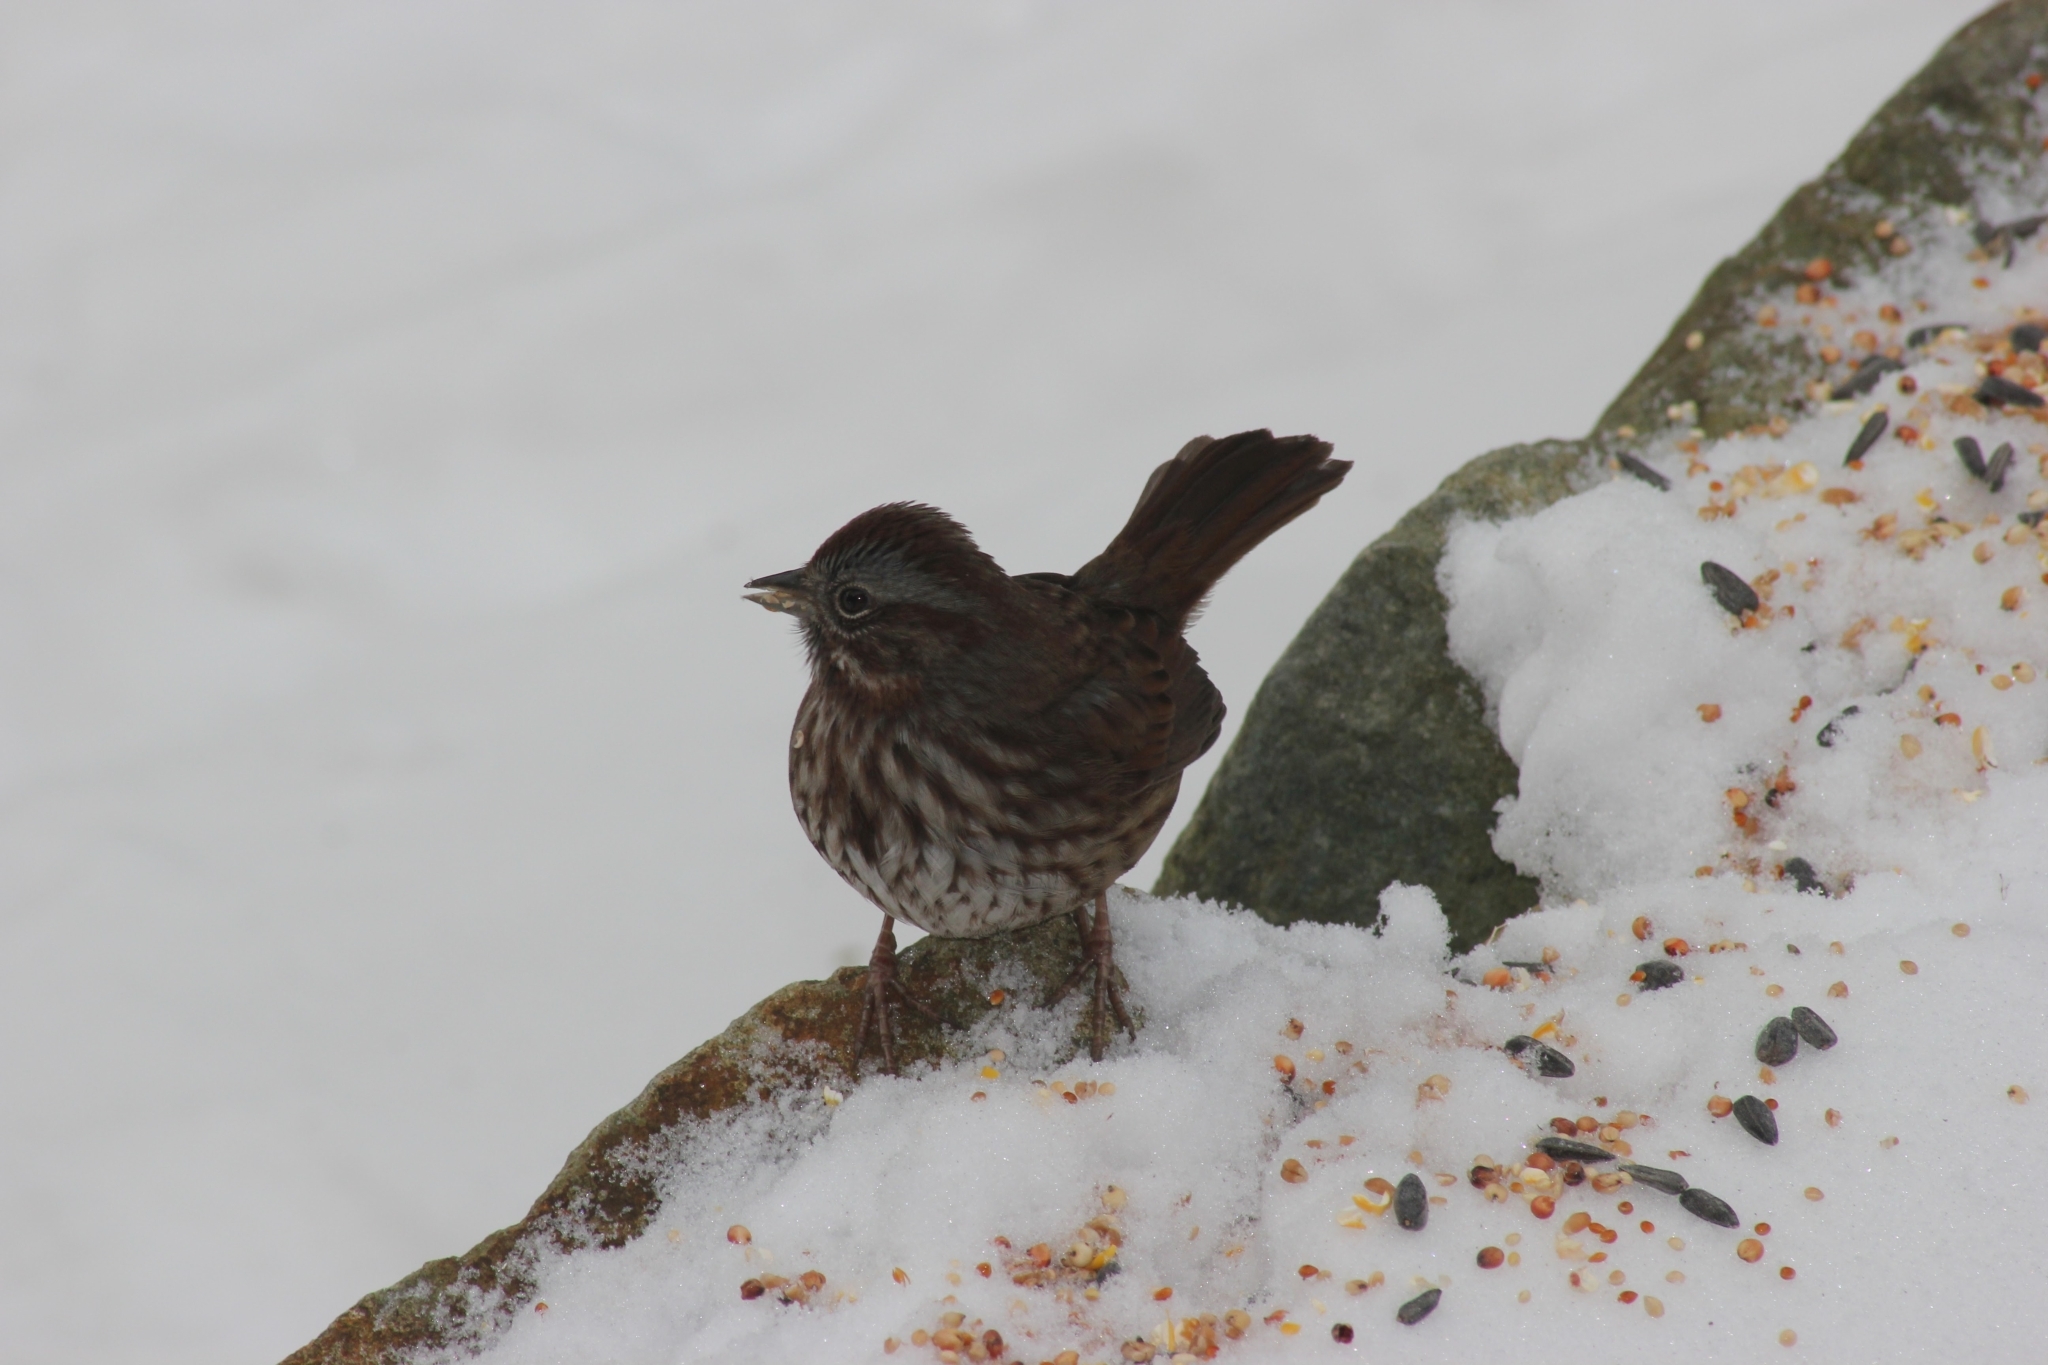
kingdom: Animalia
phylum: Chordata
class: Aves
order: Passeriformes
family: Passerellidae
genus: Melospiza
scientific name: Melospiza melodia
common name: Song sparrow
